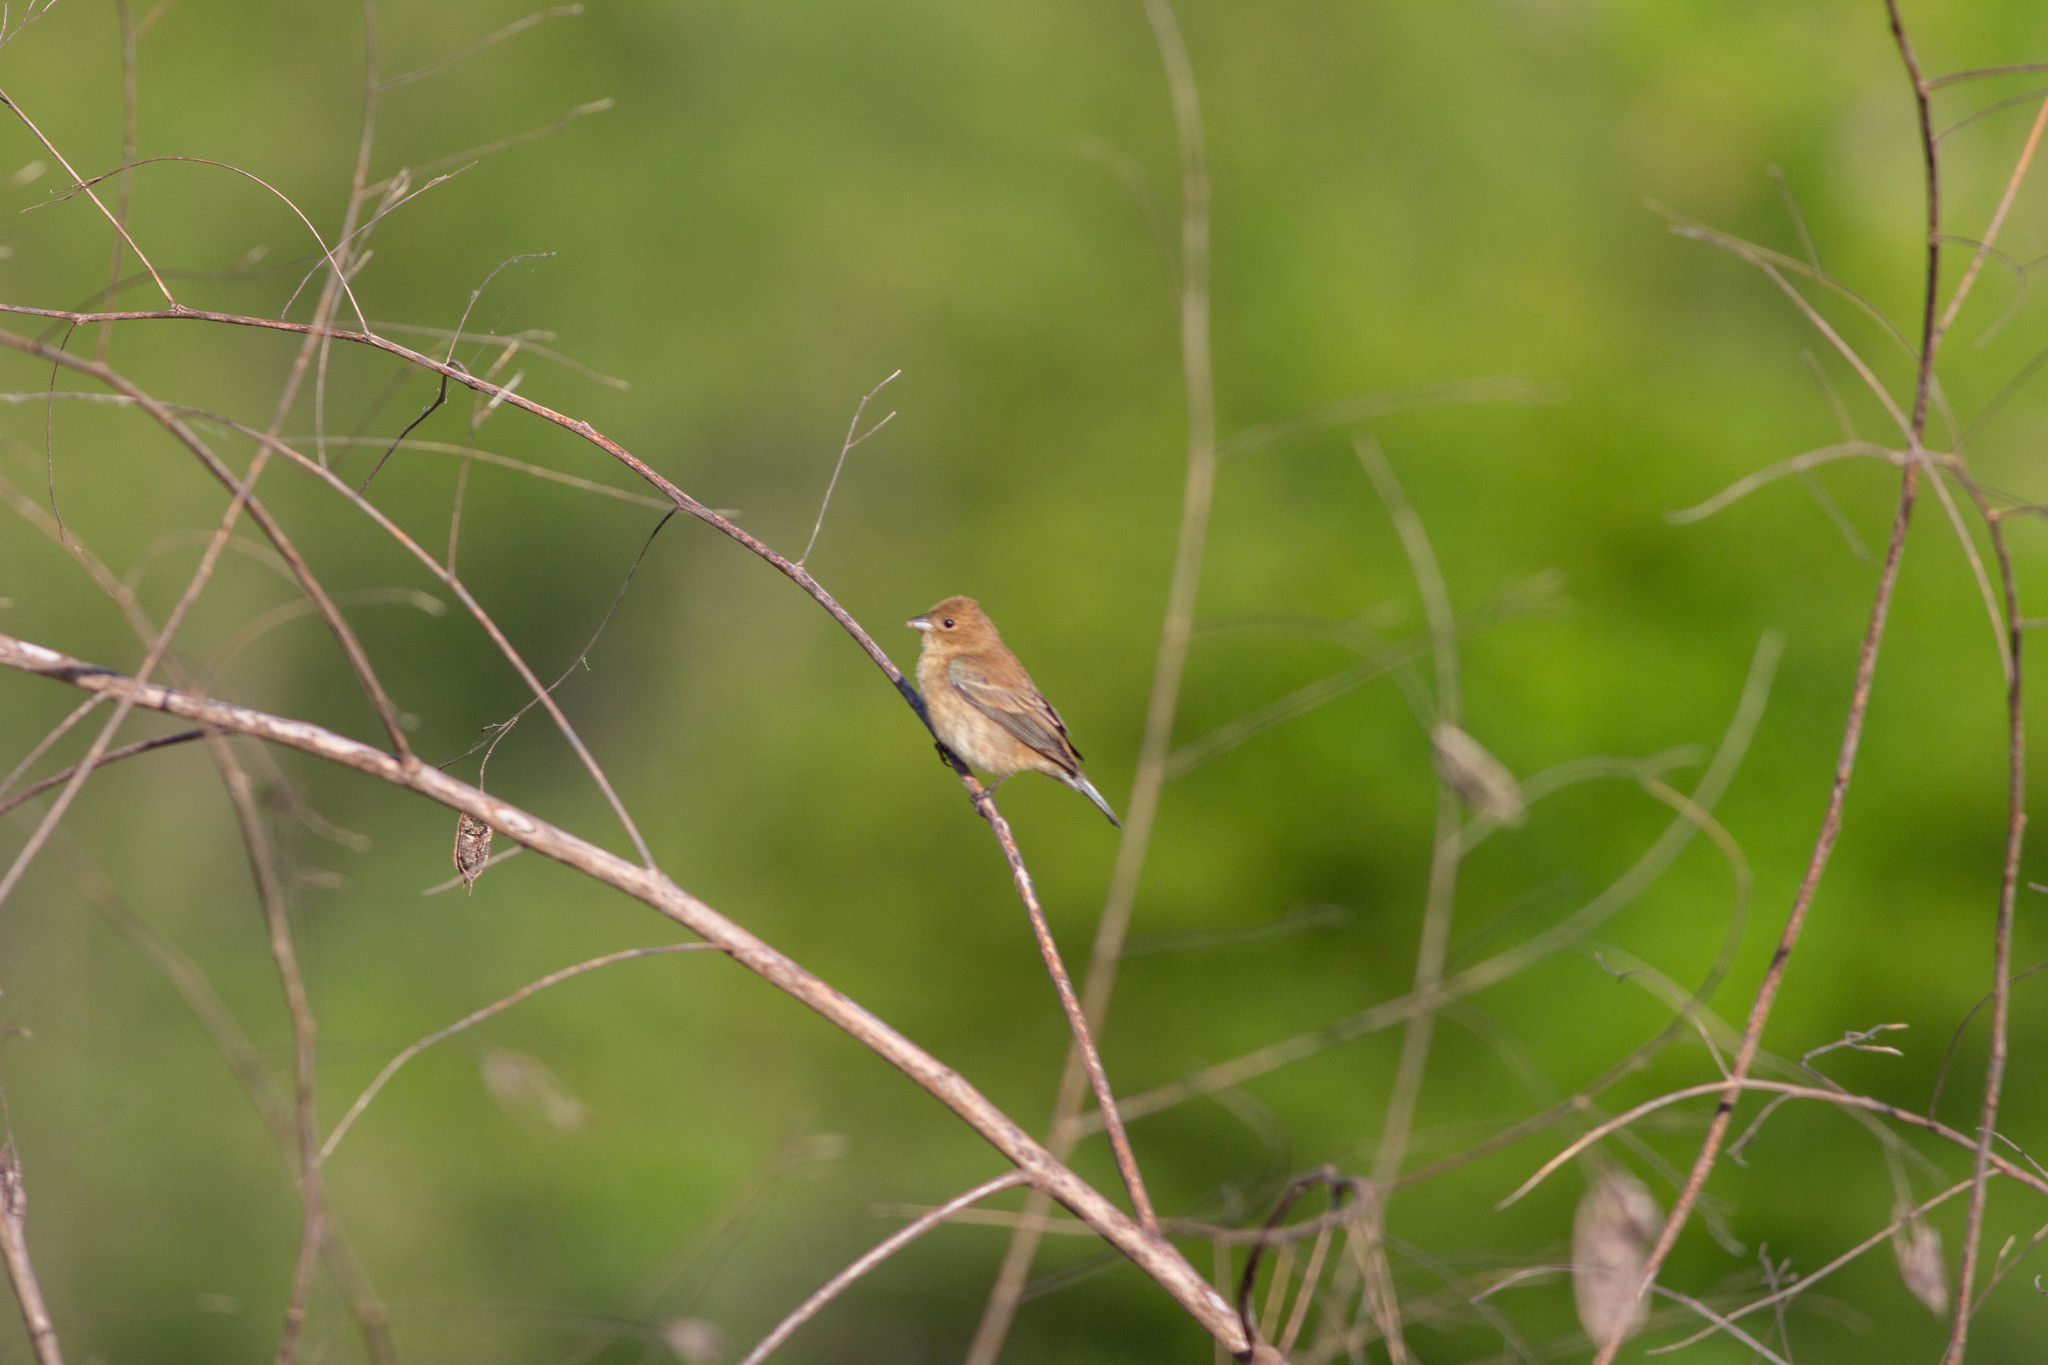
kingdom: Animalia
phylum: Chordata
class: Aves
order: Passeriformes
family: Cardinalidae
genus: Passerina
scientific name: Passerina cyanea
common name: Indigo bunting
